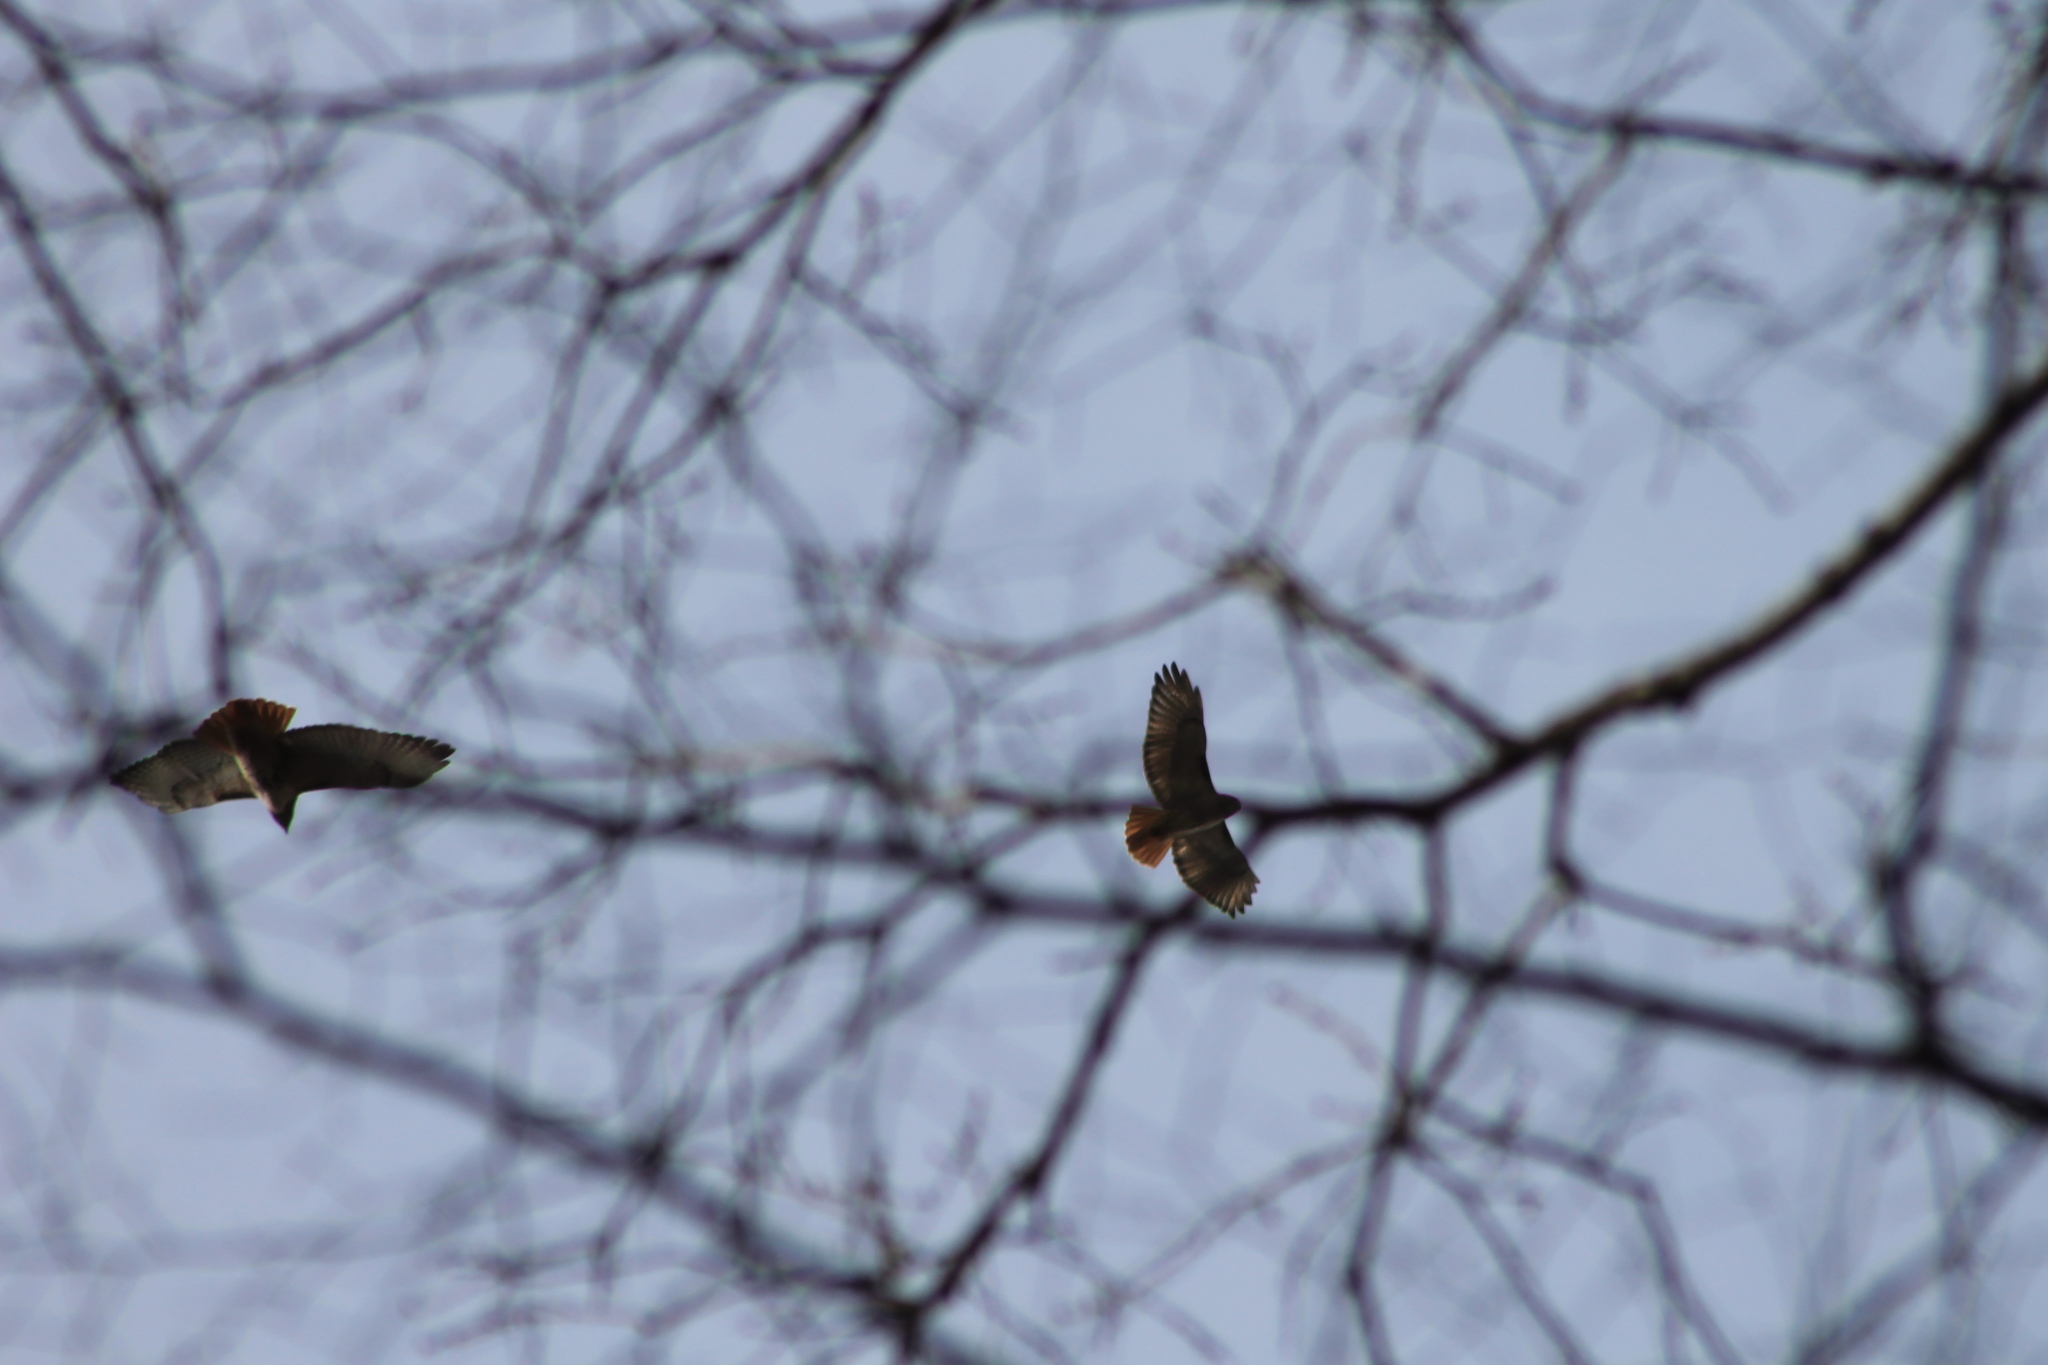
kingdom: Animalia
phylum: Chordata
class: Aves
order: Accipitriformes
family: Accipitridae
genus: Buteo
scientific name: Buteo jamaicensis
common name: Red-tailed hawk
